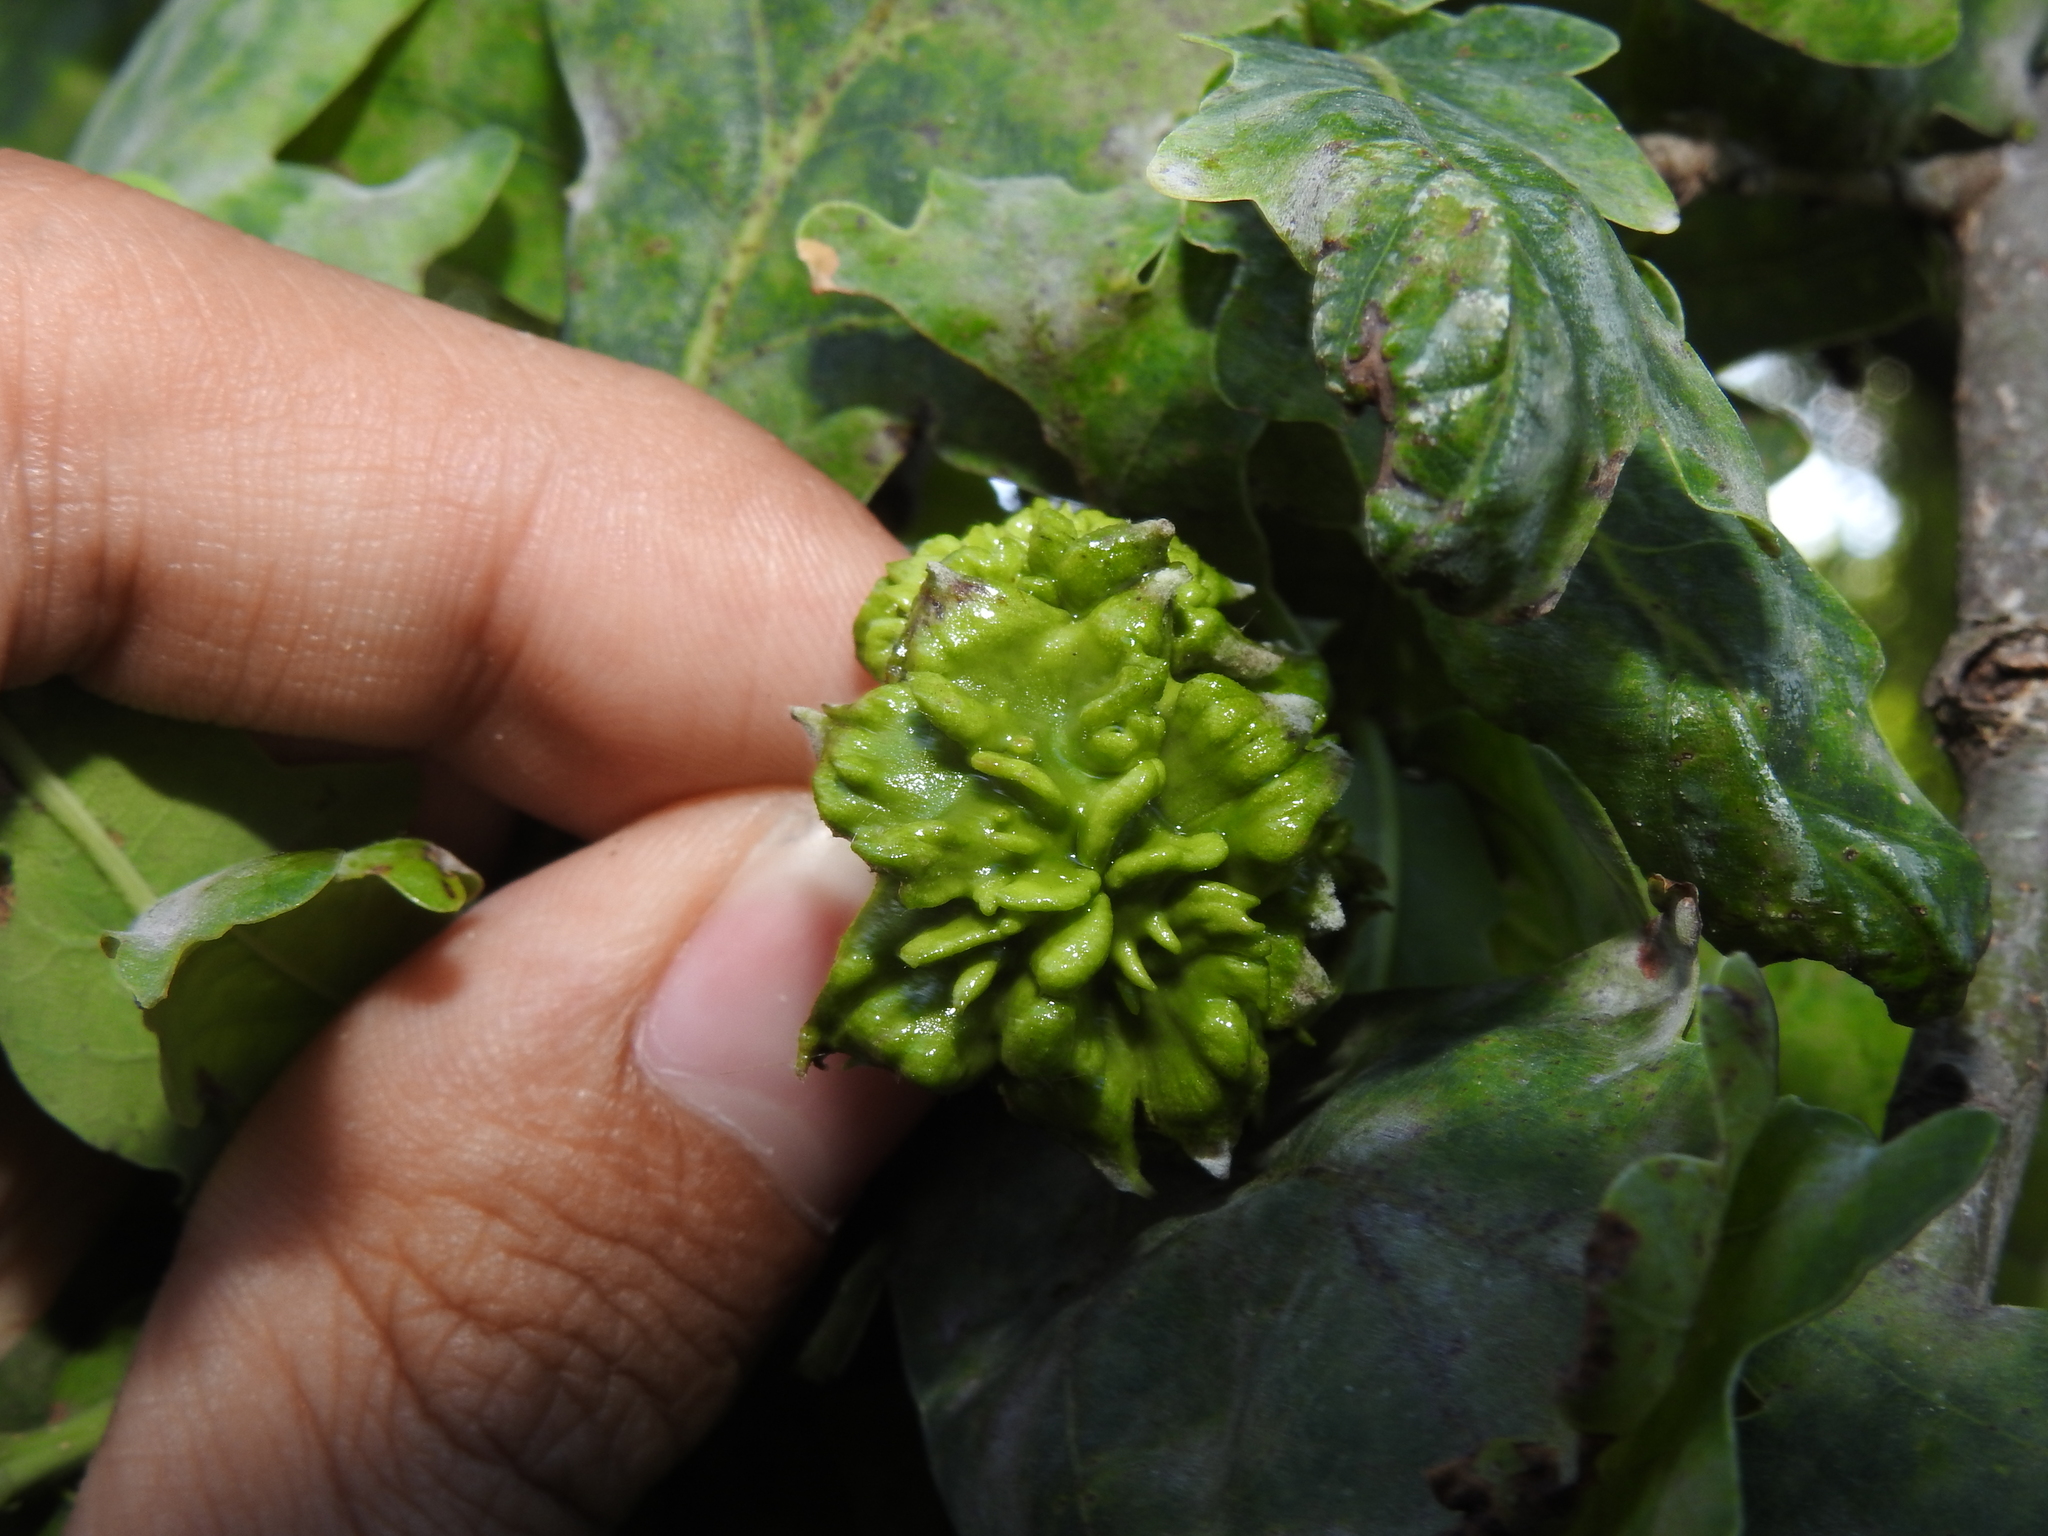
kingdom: Animalia
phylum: Arthropoda
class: Insecta
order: Hymenoptera
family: Cynipidae
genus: Andricus
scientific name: Andricus quercuscalicis
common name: Knopper gall
